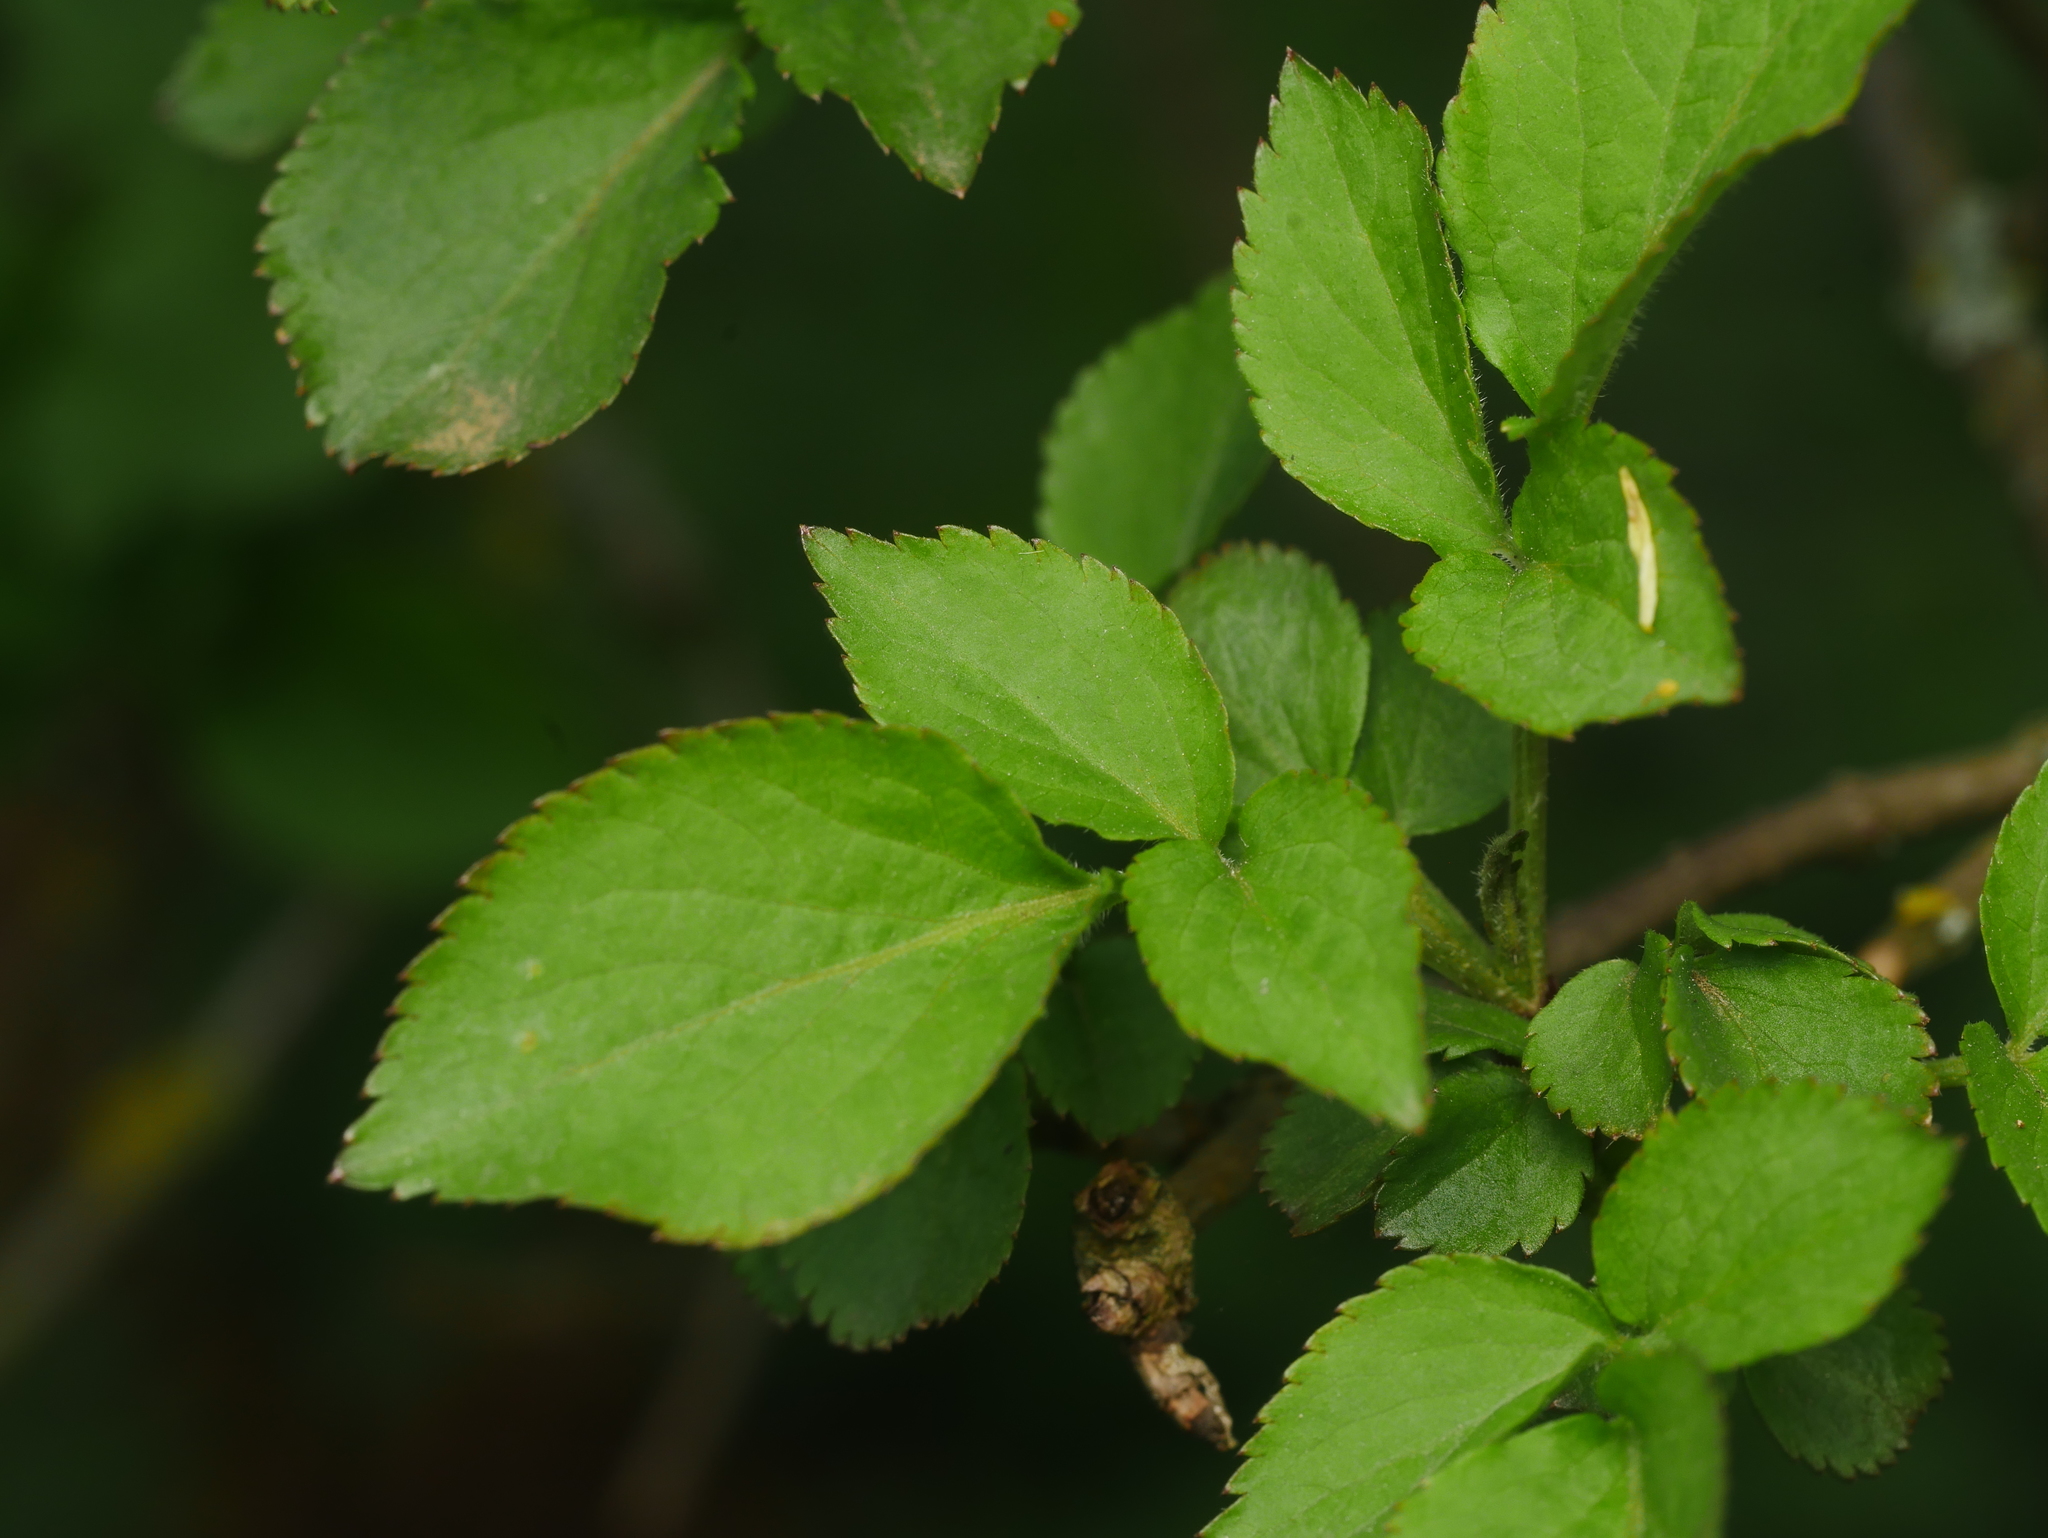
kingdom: Plantae
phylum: Tracheophyta
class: Magnoliopsida
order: Dipsacales
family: Viburnaceae
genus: Sambucus
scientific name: Sambucus nigra
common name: Elder
